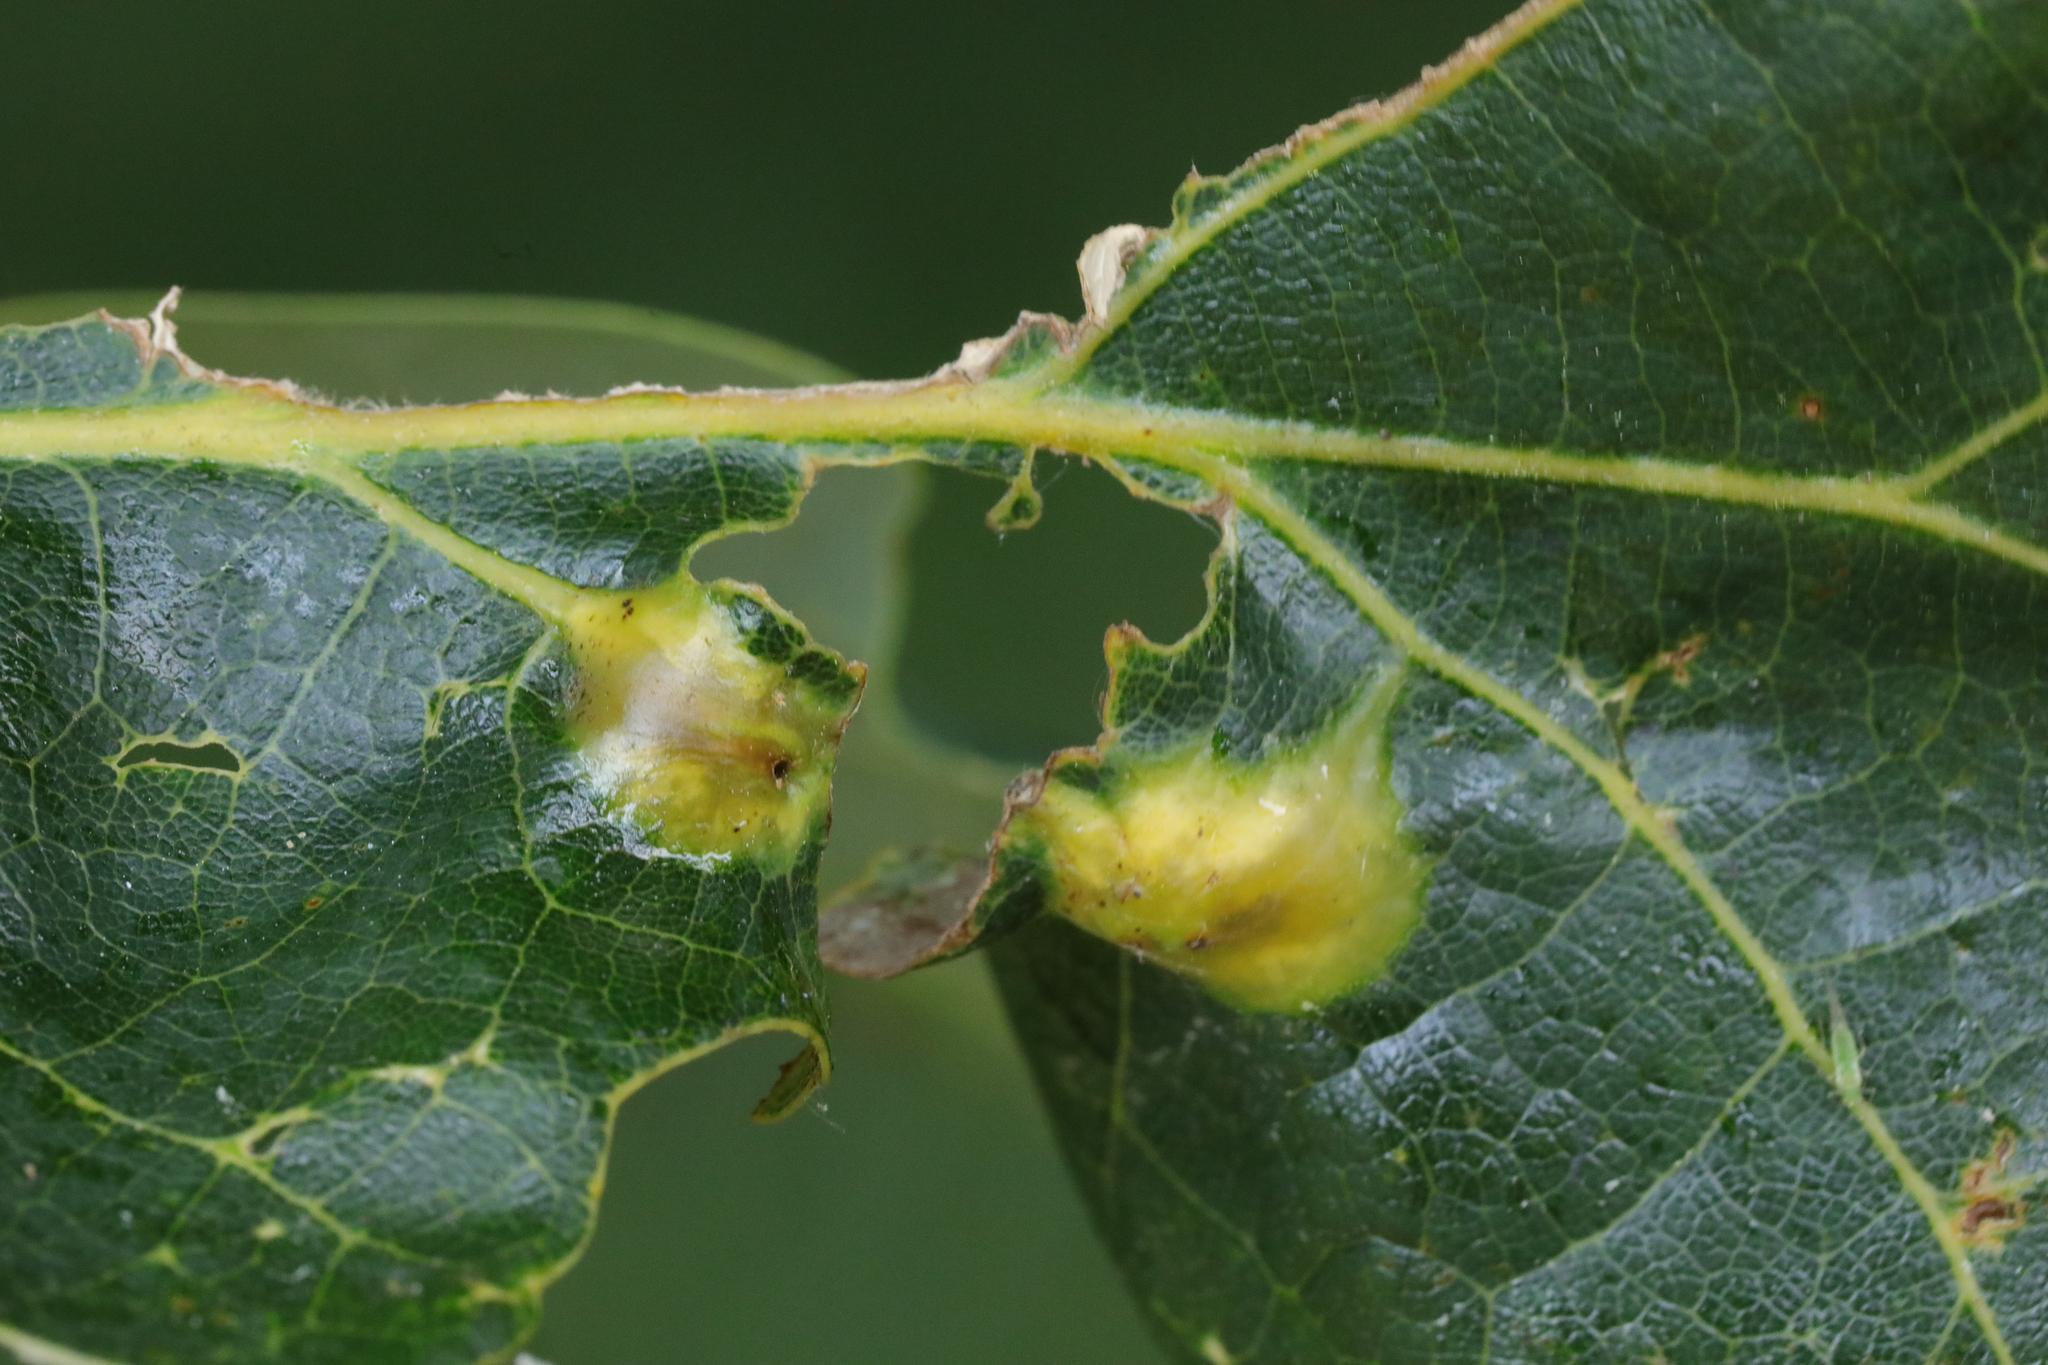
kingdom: Animalia
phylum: Arthropoda
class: Insecta
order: Hymenoptera
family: Cynipidae
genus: Andricus
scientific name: Andricus curvator
